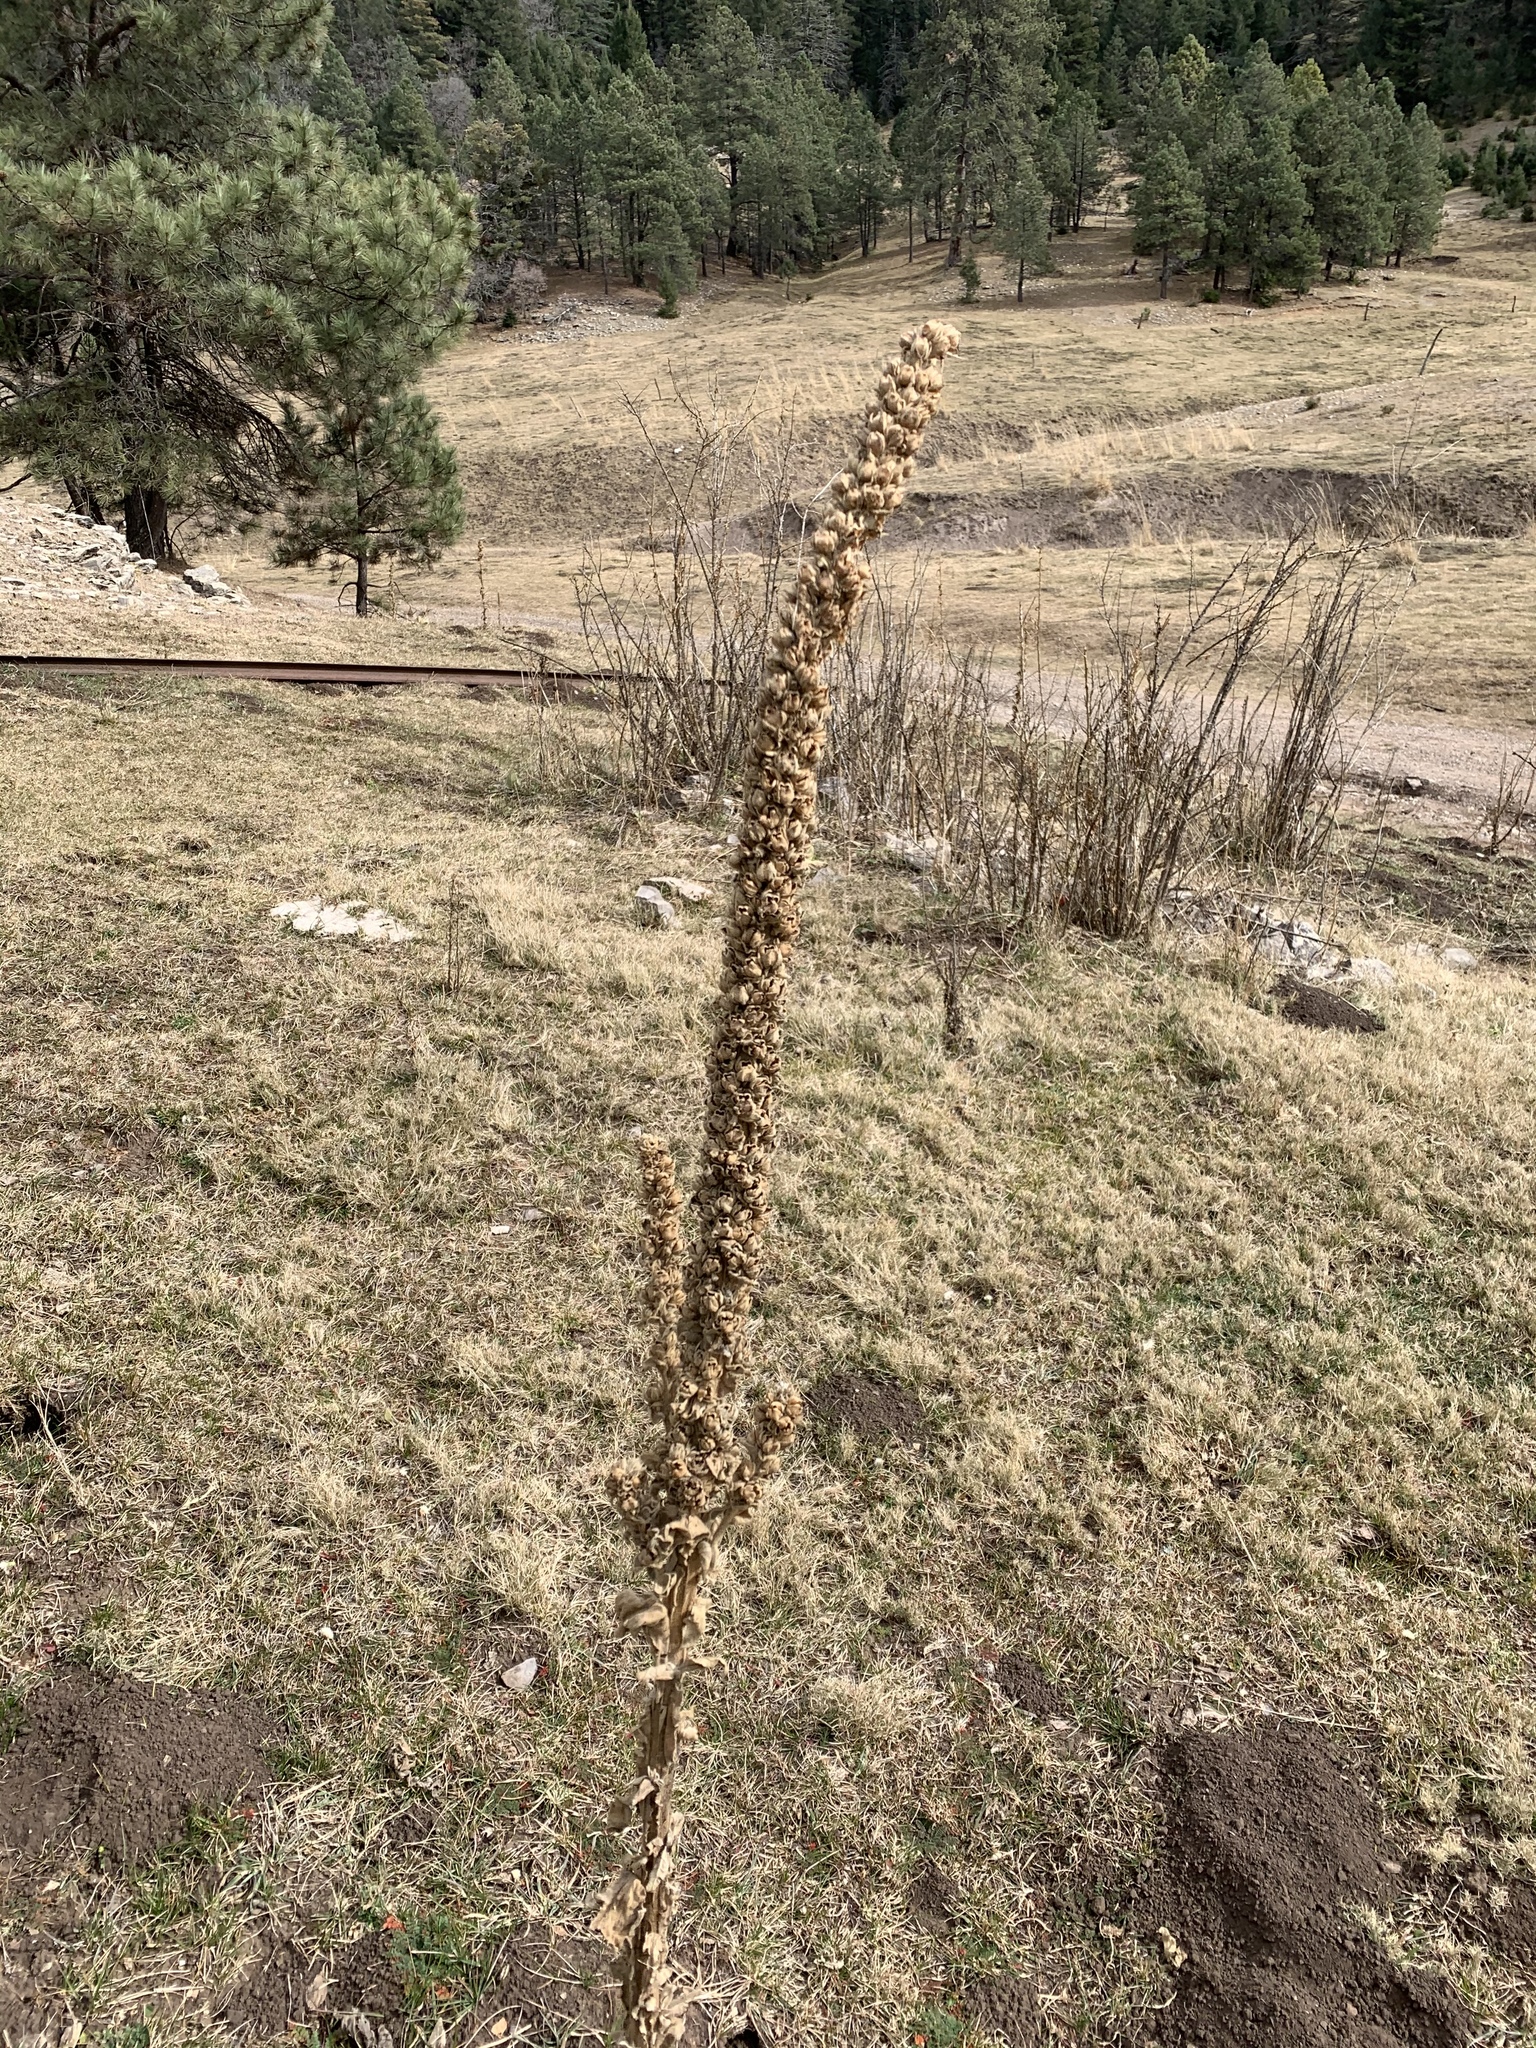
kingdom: Plantae
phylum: Tracheophyta
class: Magnoliopsida
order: Lamiales
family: Scrophulariaceae
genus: Verbascum
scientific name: Verbascum thapsus
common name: Common mullein
